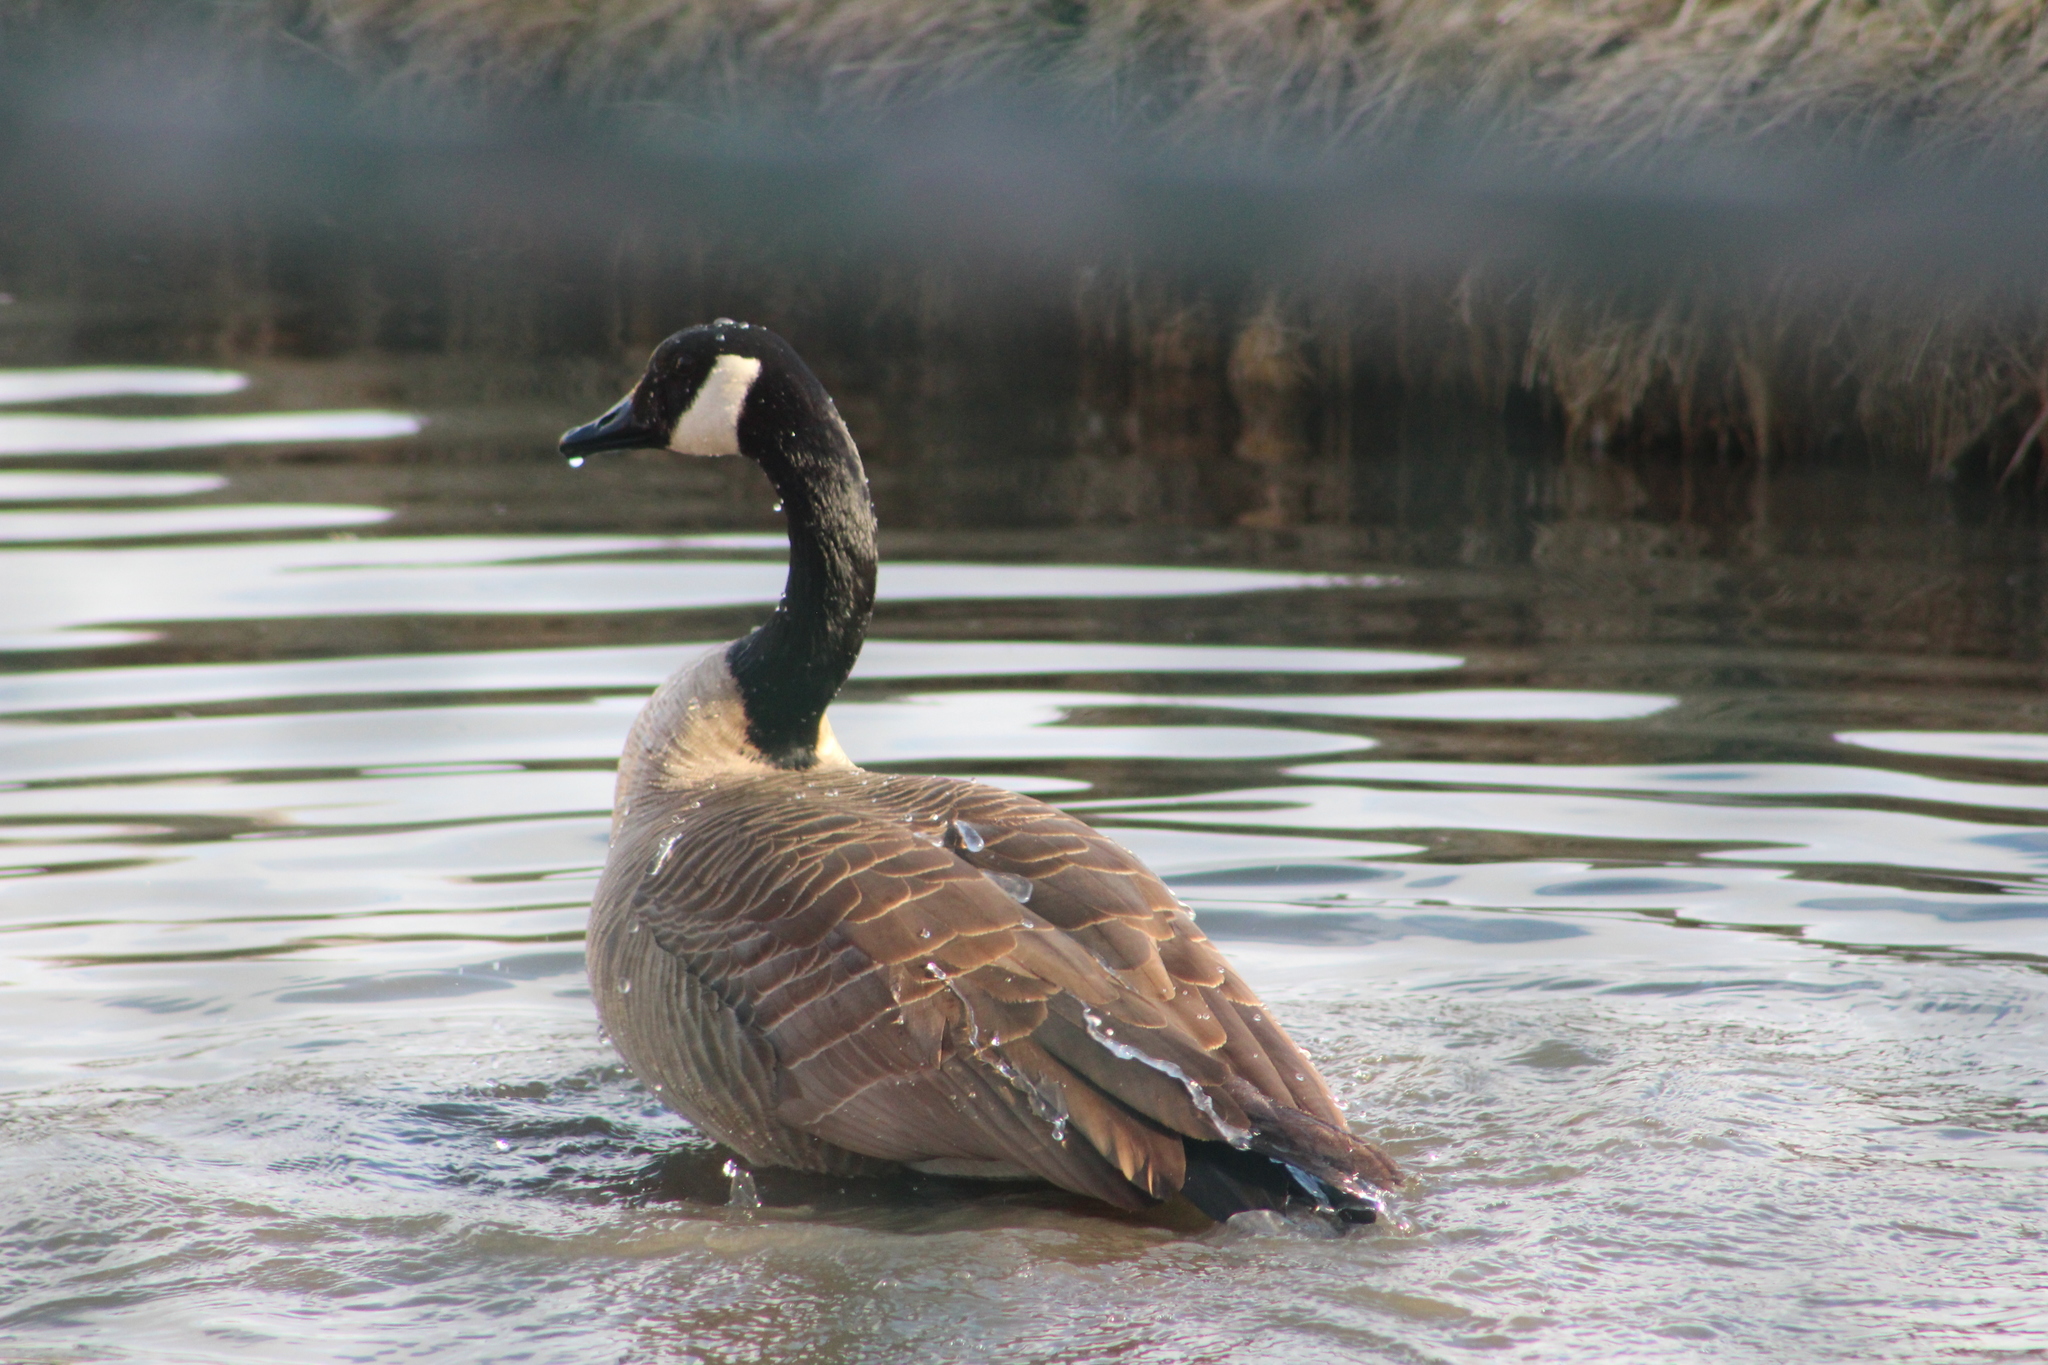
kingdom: Animalia
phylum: Chordata
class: Aves
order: Anseriformes
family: Anatidae
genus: Branta
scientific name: Branta canadensis
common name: Canada goose
